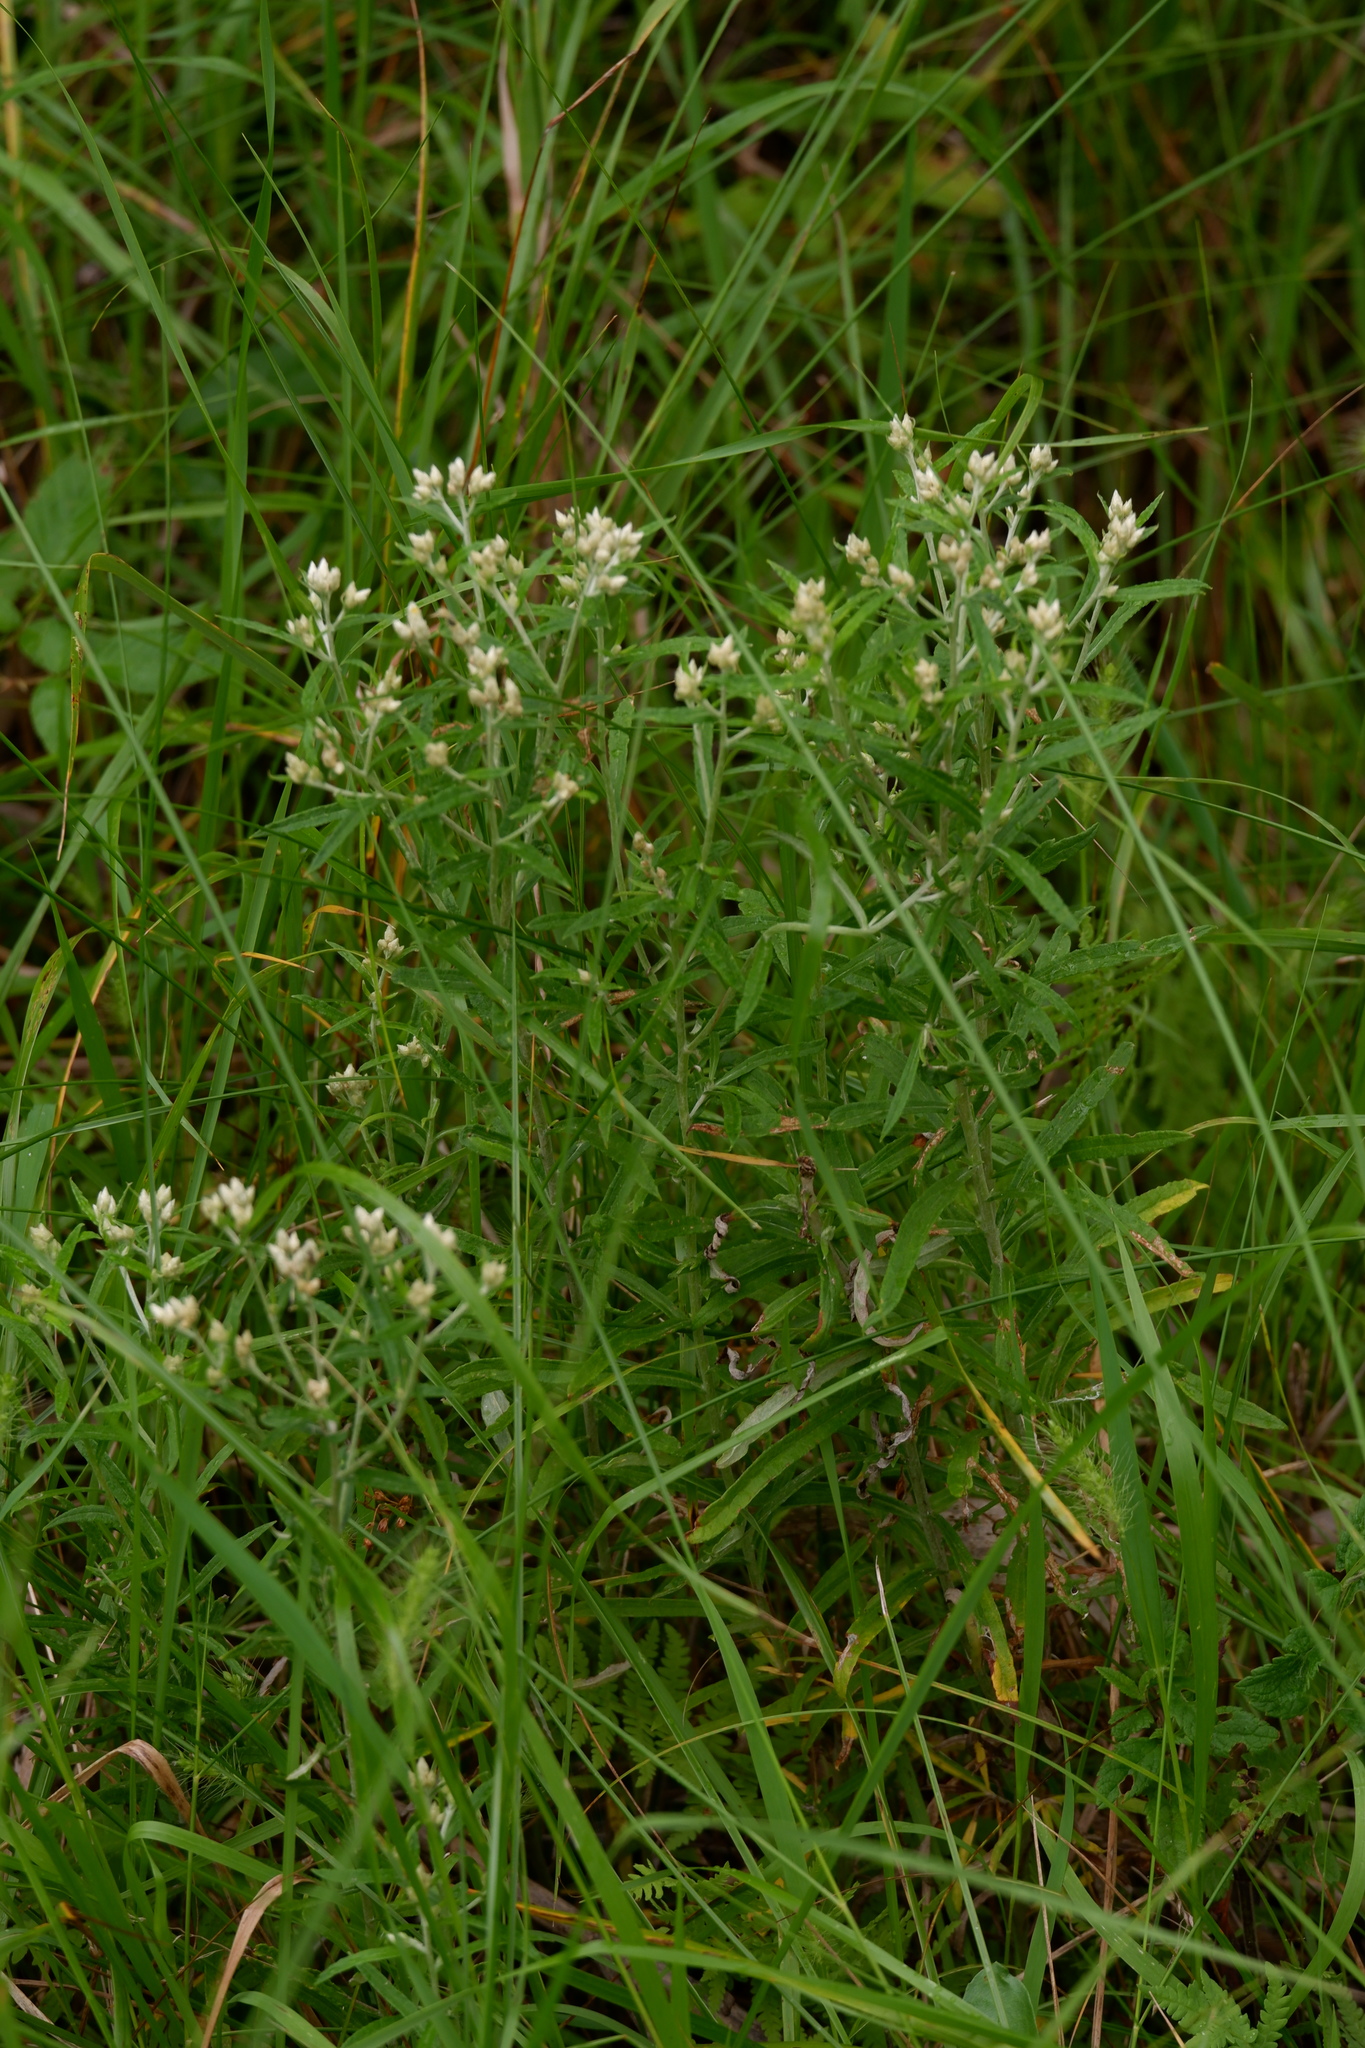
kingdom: Plantae
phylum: Tracheophyta
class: Magnoliopsida
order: Asterales
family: Asteraceae
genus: Pseudognaphalium
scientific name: Pseudognaphalium obtusifolium
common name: Eastern rabbit-tobacco
